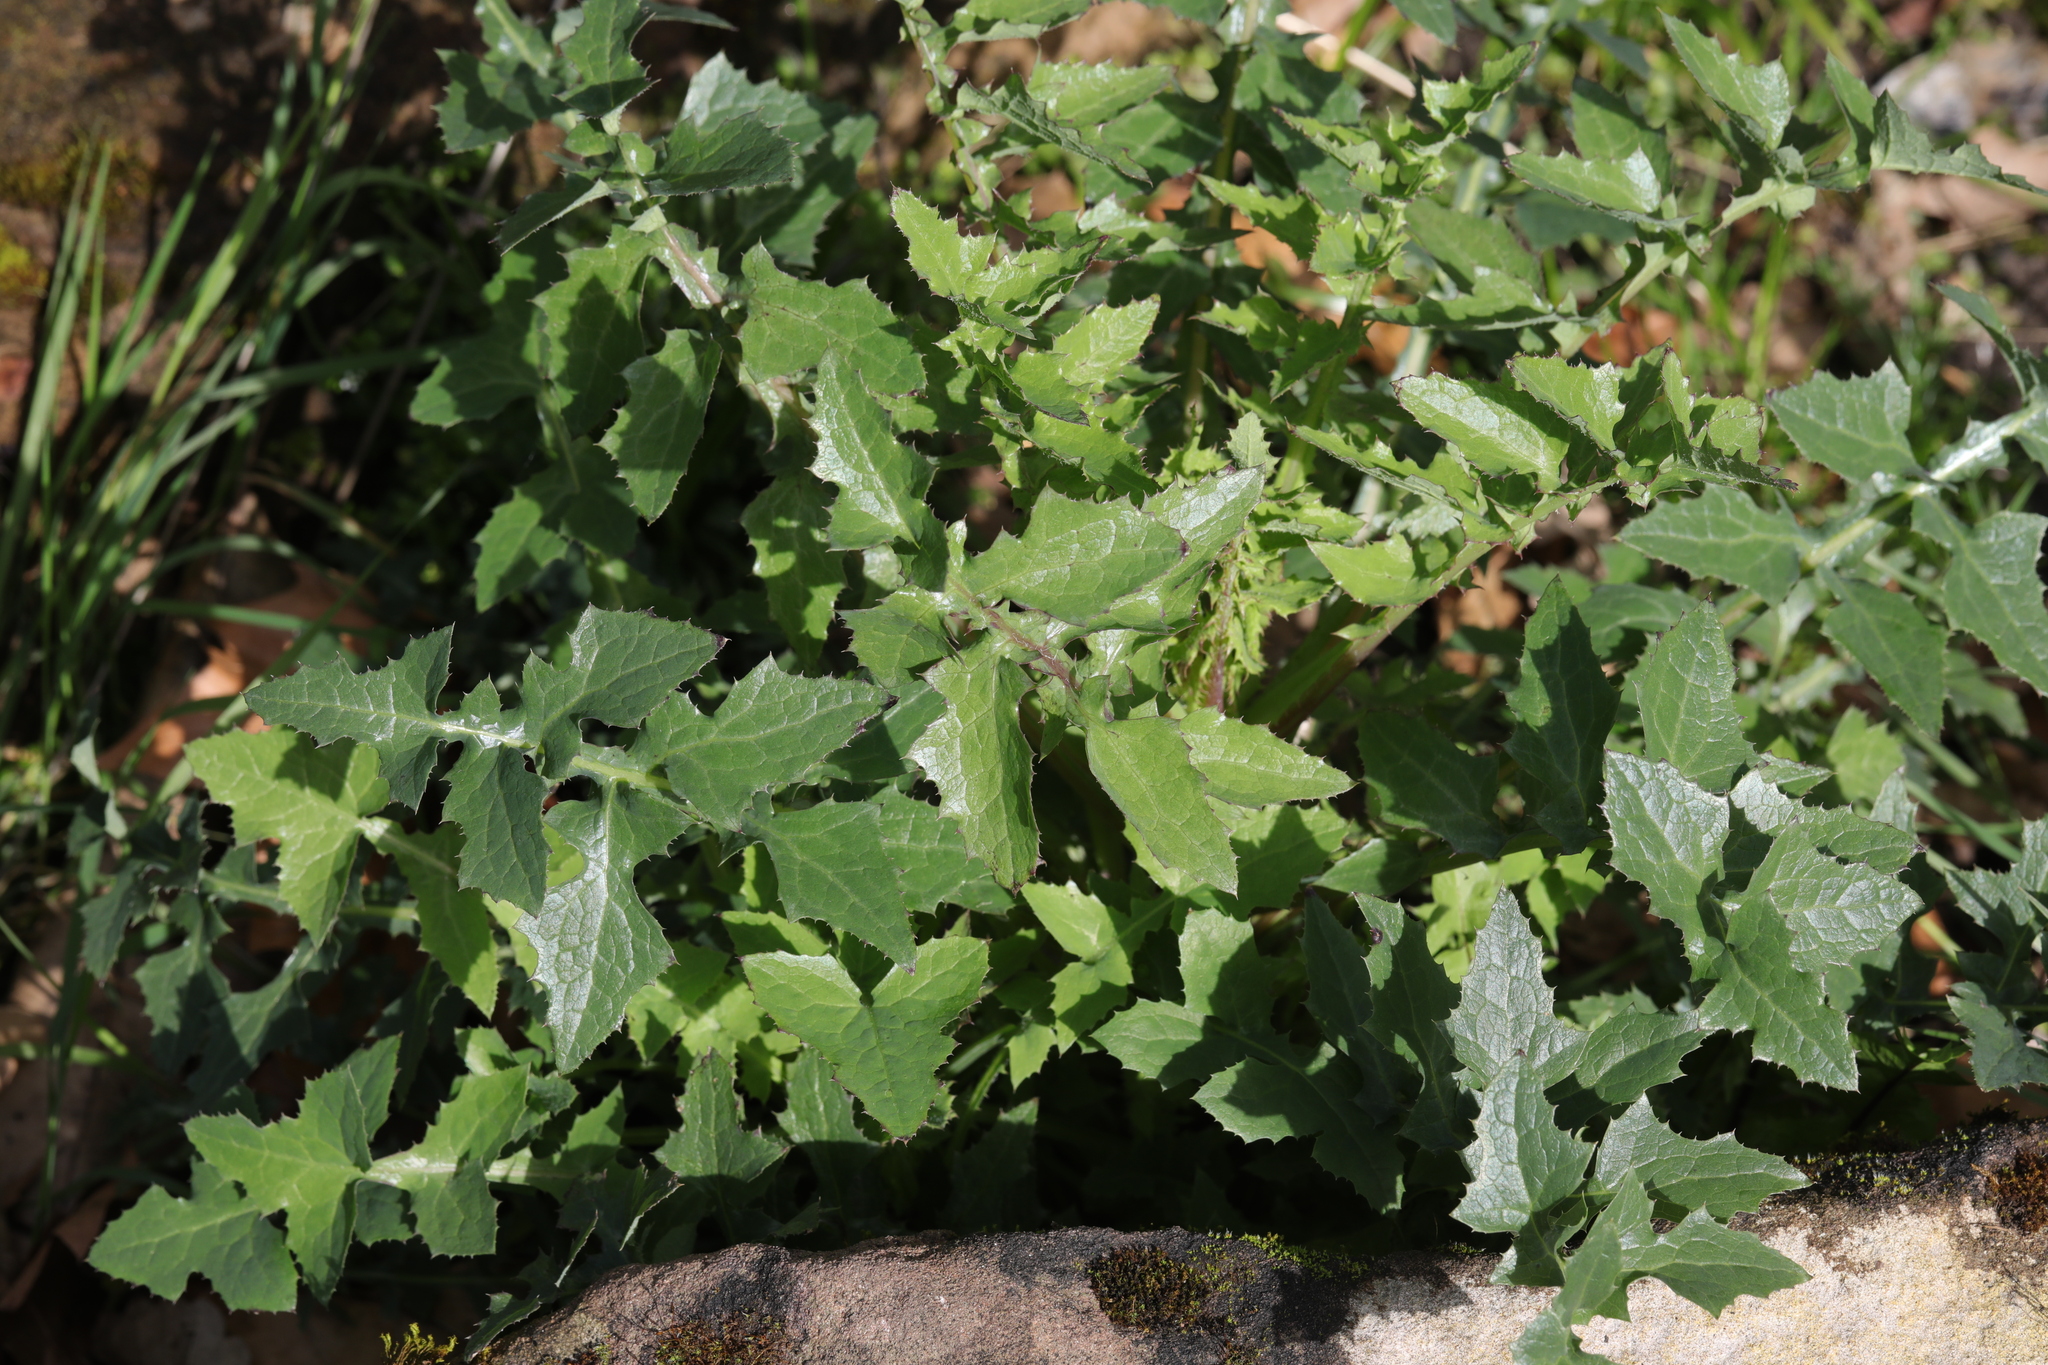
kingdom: Plantae
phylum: Tracheophyta
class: Magnoliopsida
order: Asterales
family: Asteraceae
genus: Sonchus
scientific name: Sonchus oleraceus
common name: Common sowthistle
